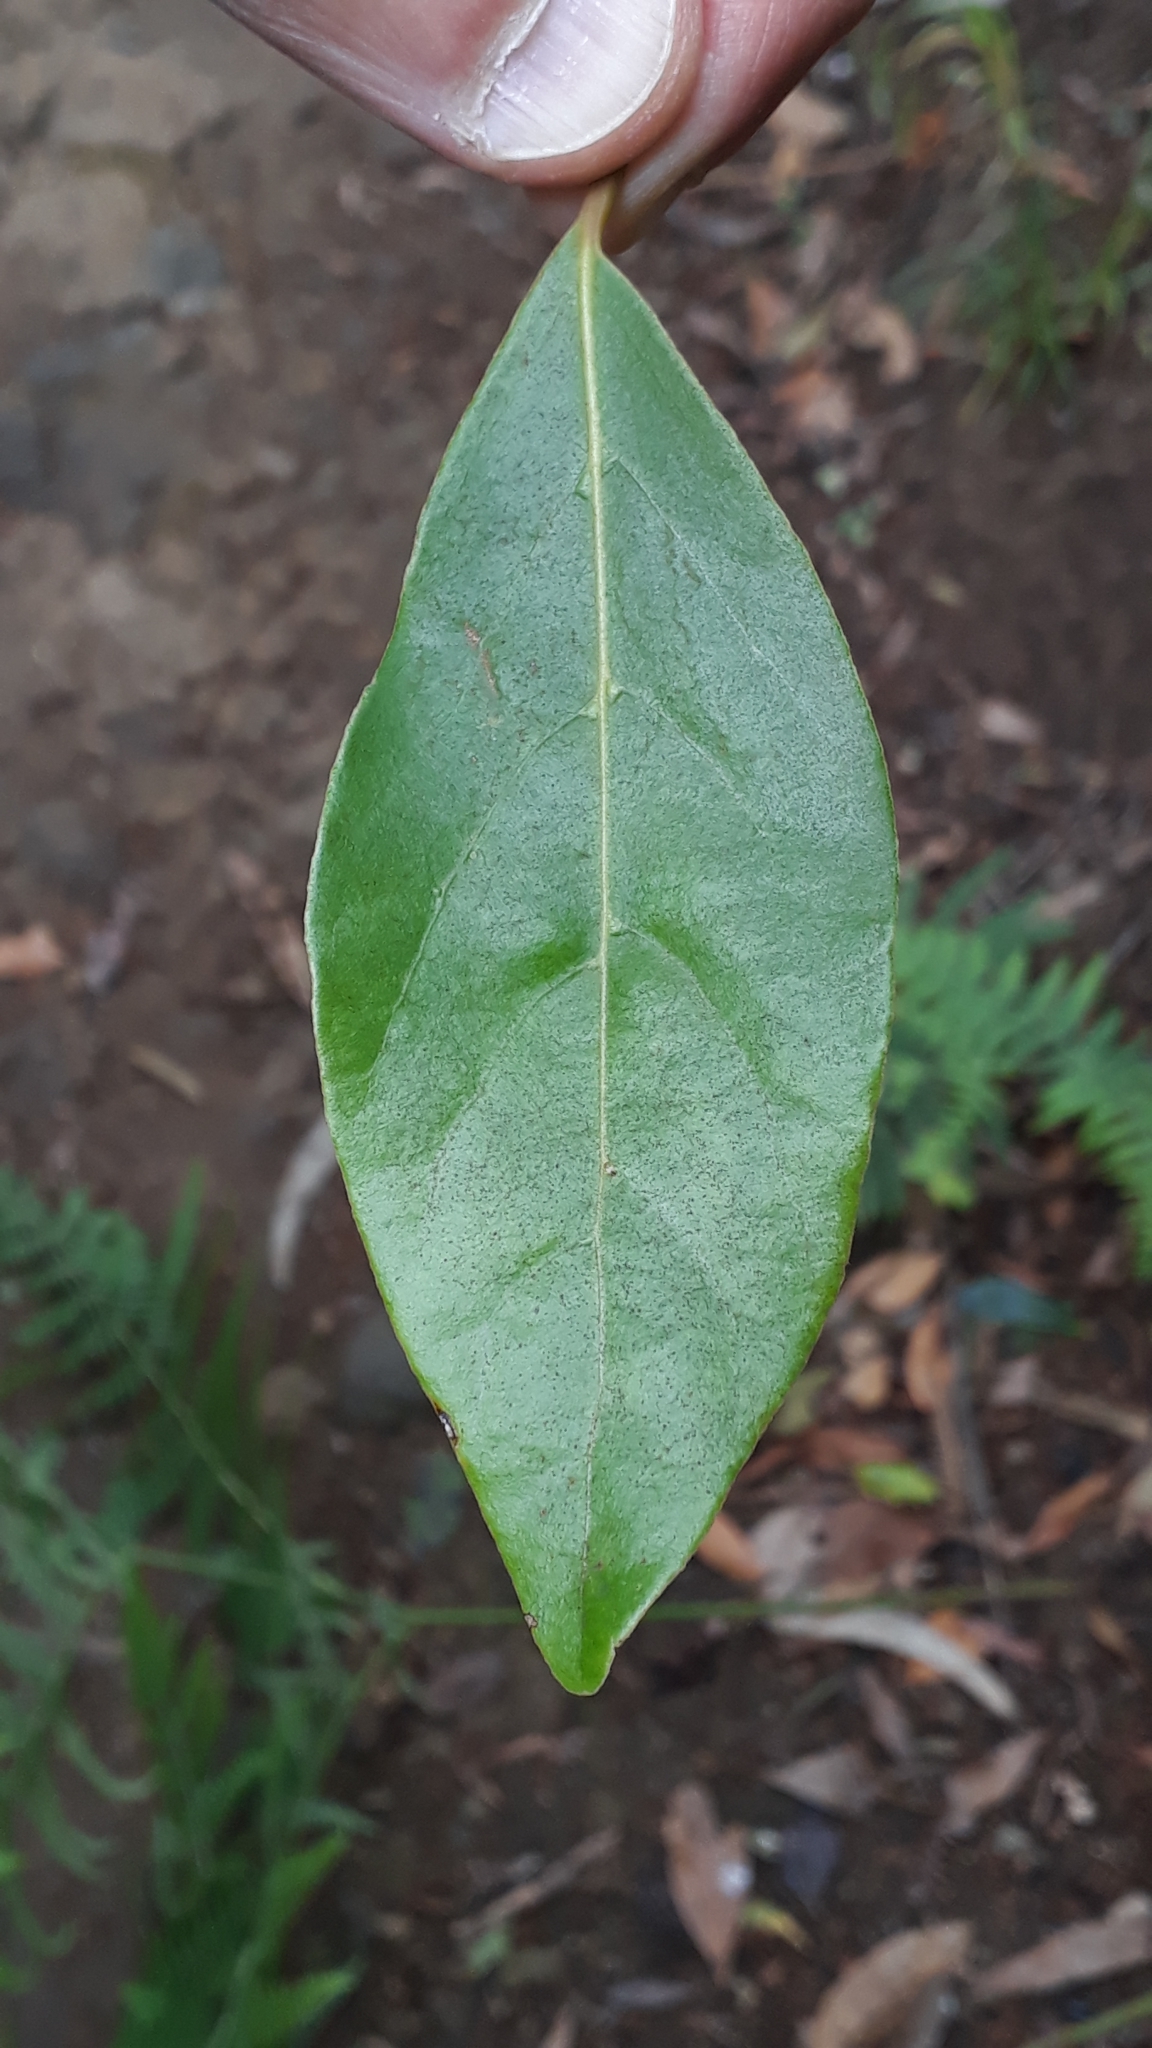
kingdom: Plantae
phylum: Tracheophyta
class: Magnoliopsida
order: Laurales
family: Lauraceae
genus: Laurus
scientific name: Laurus novocanariensis
